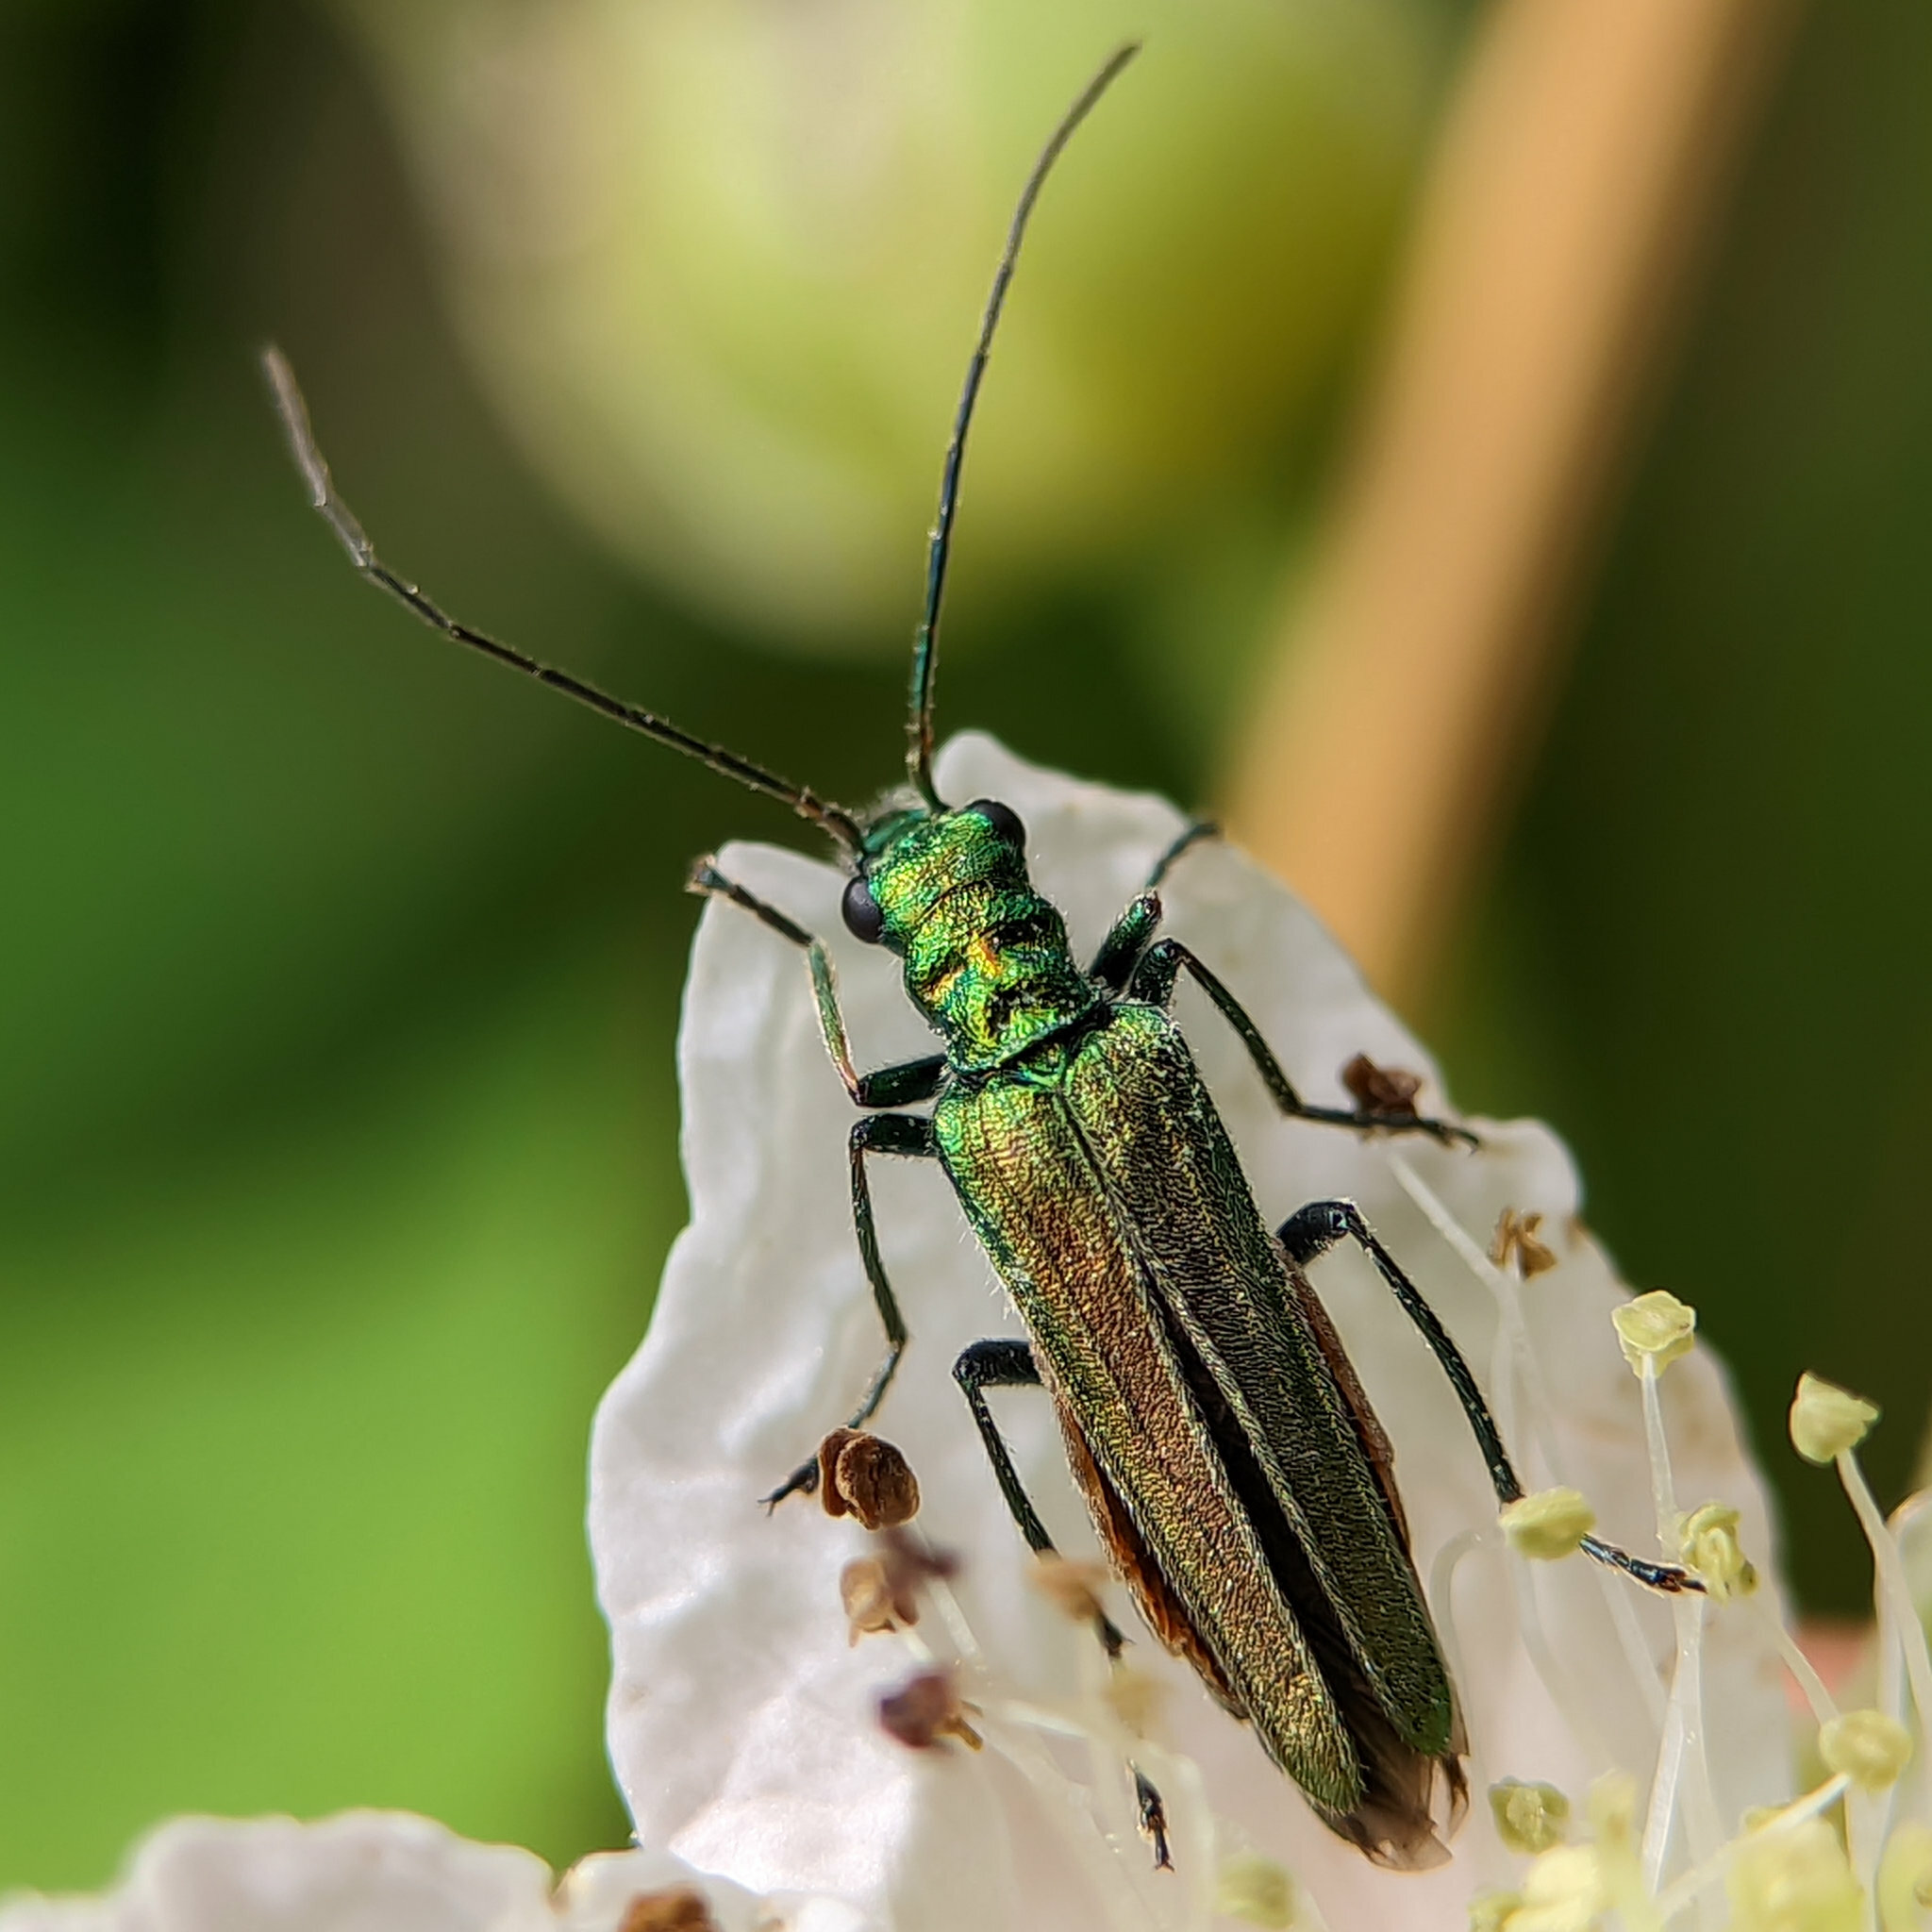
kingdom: Animalia
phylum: Arthropoda
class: Insecta
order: Coleoptera
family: Oedemeridae
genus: Oedemera
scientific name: Oedemera nobilis
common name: Swollen-thighed beetle
